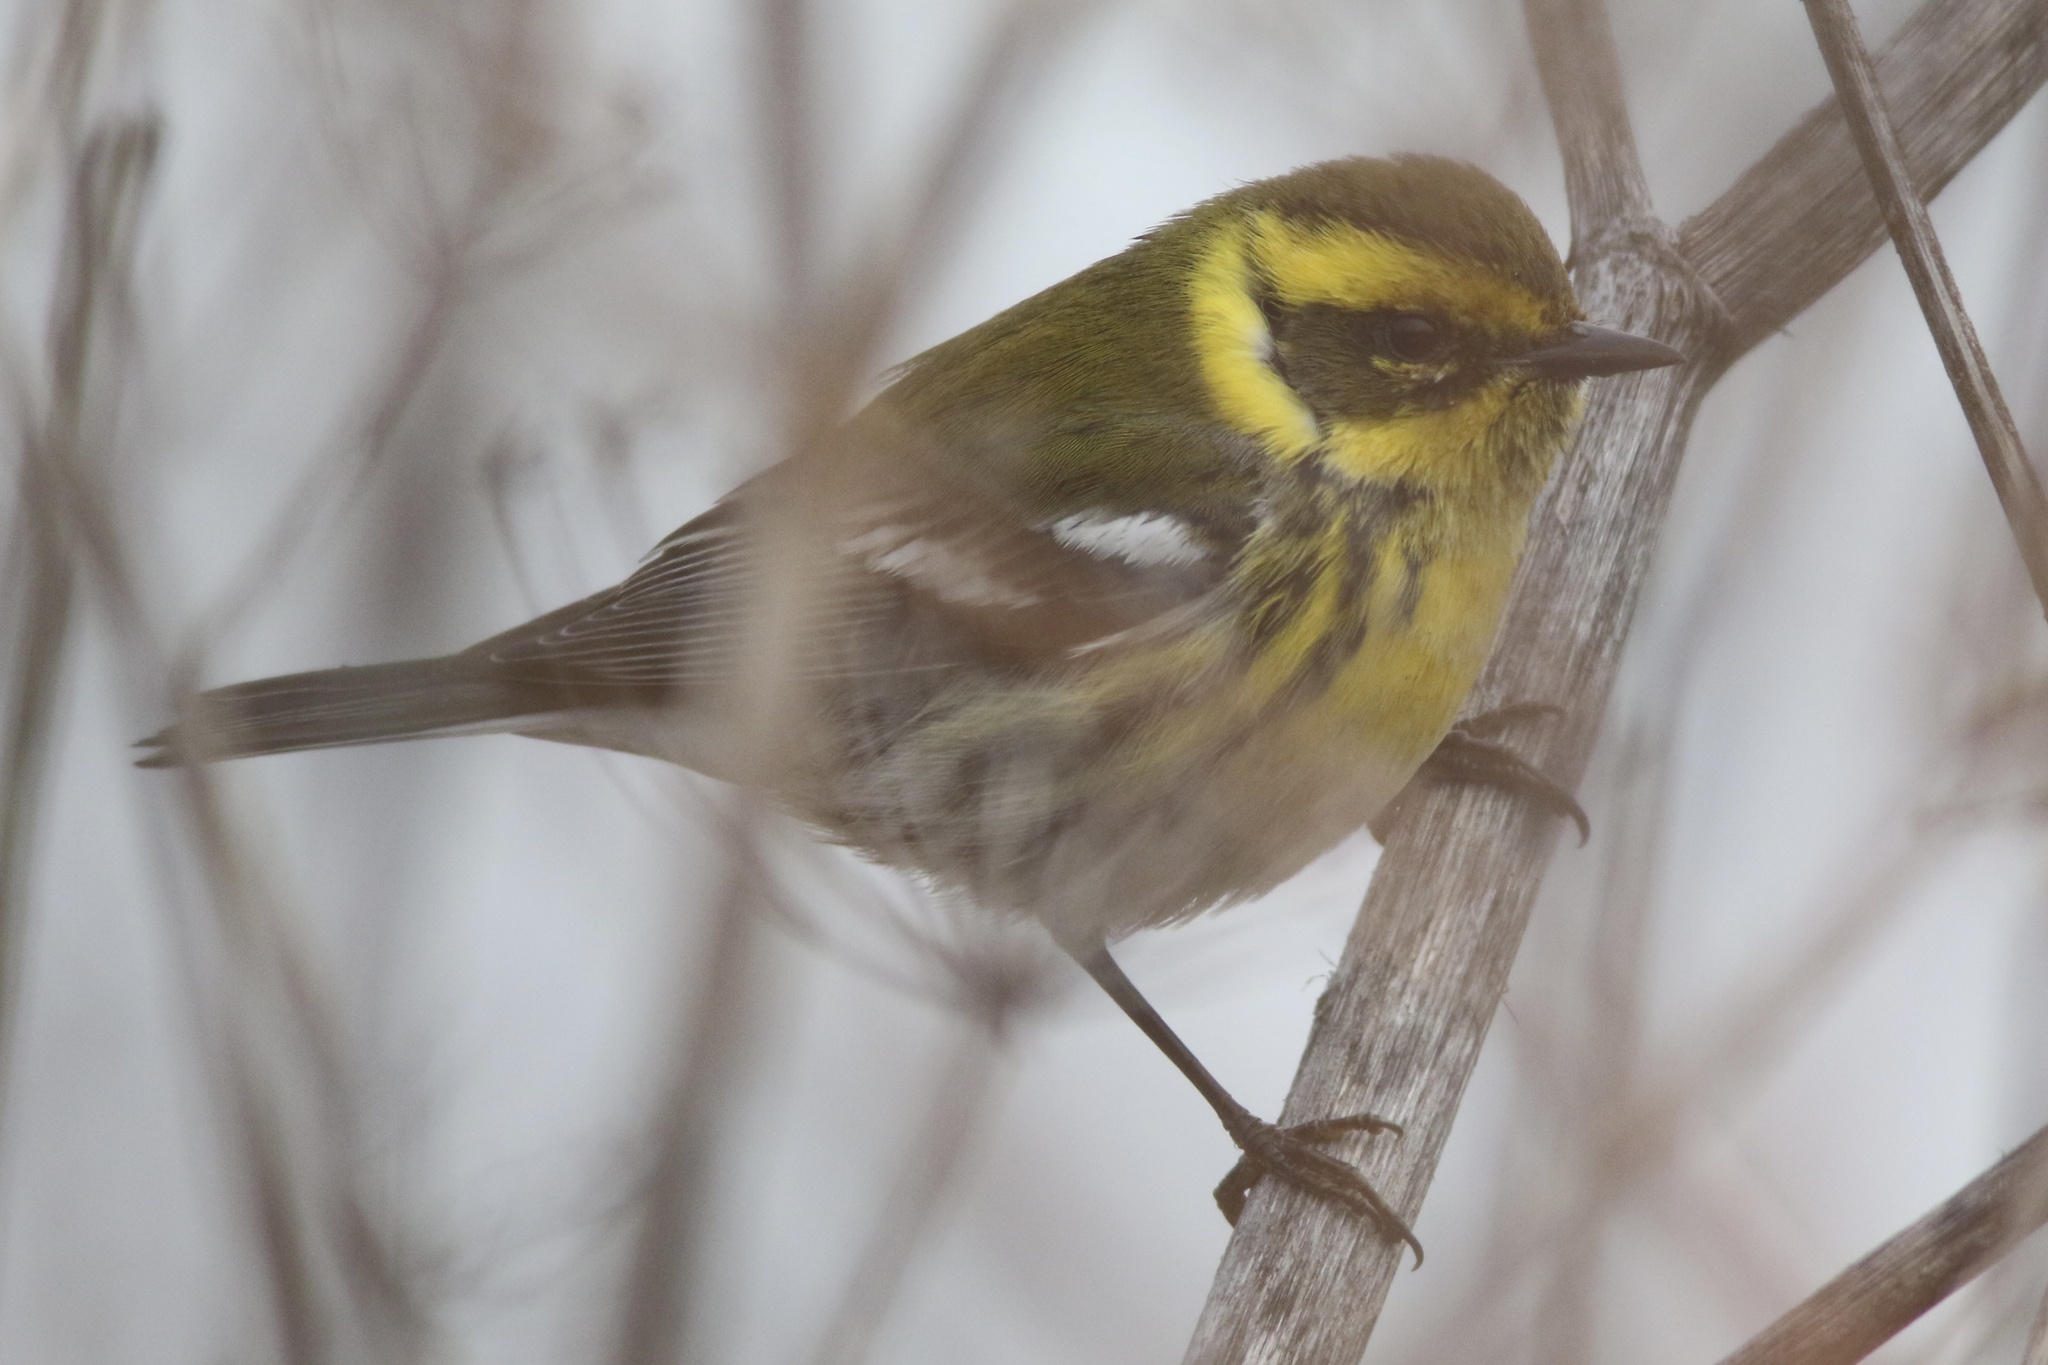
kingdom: Animalia
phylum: Chordata
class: Aves
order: Passeriformes
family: Parulidae
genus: Setophaga
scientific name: Setophaga townsendi
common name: Townsend's warbler
